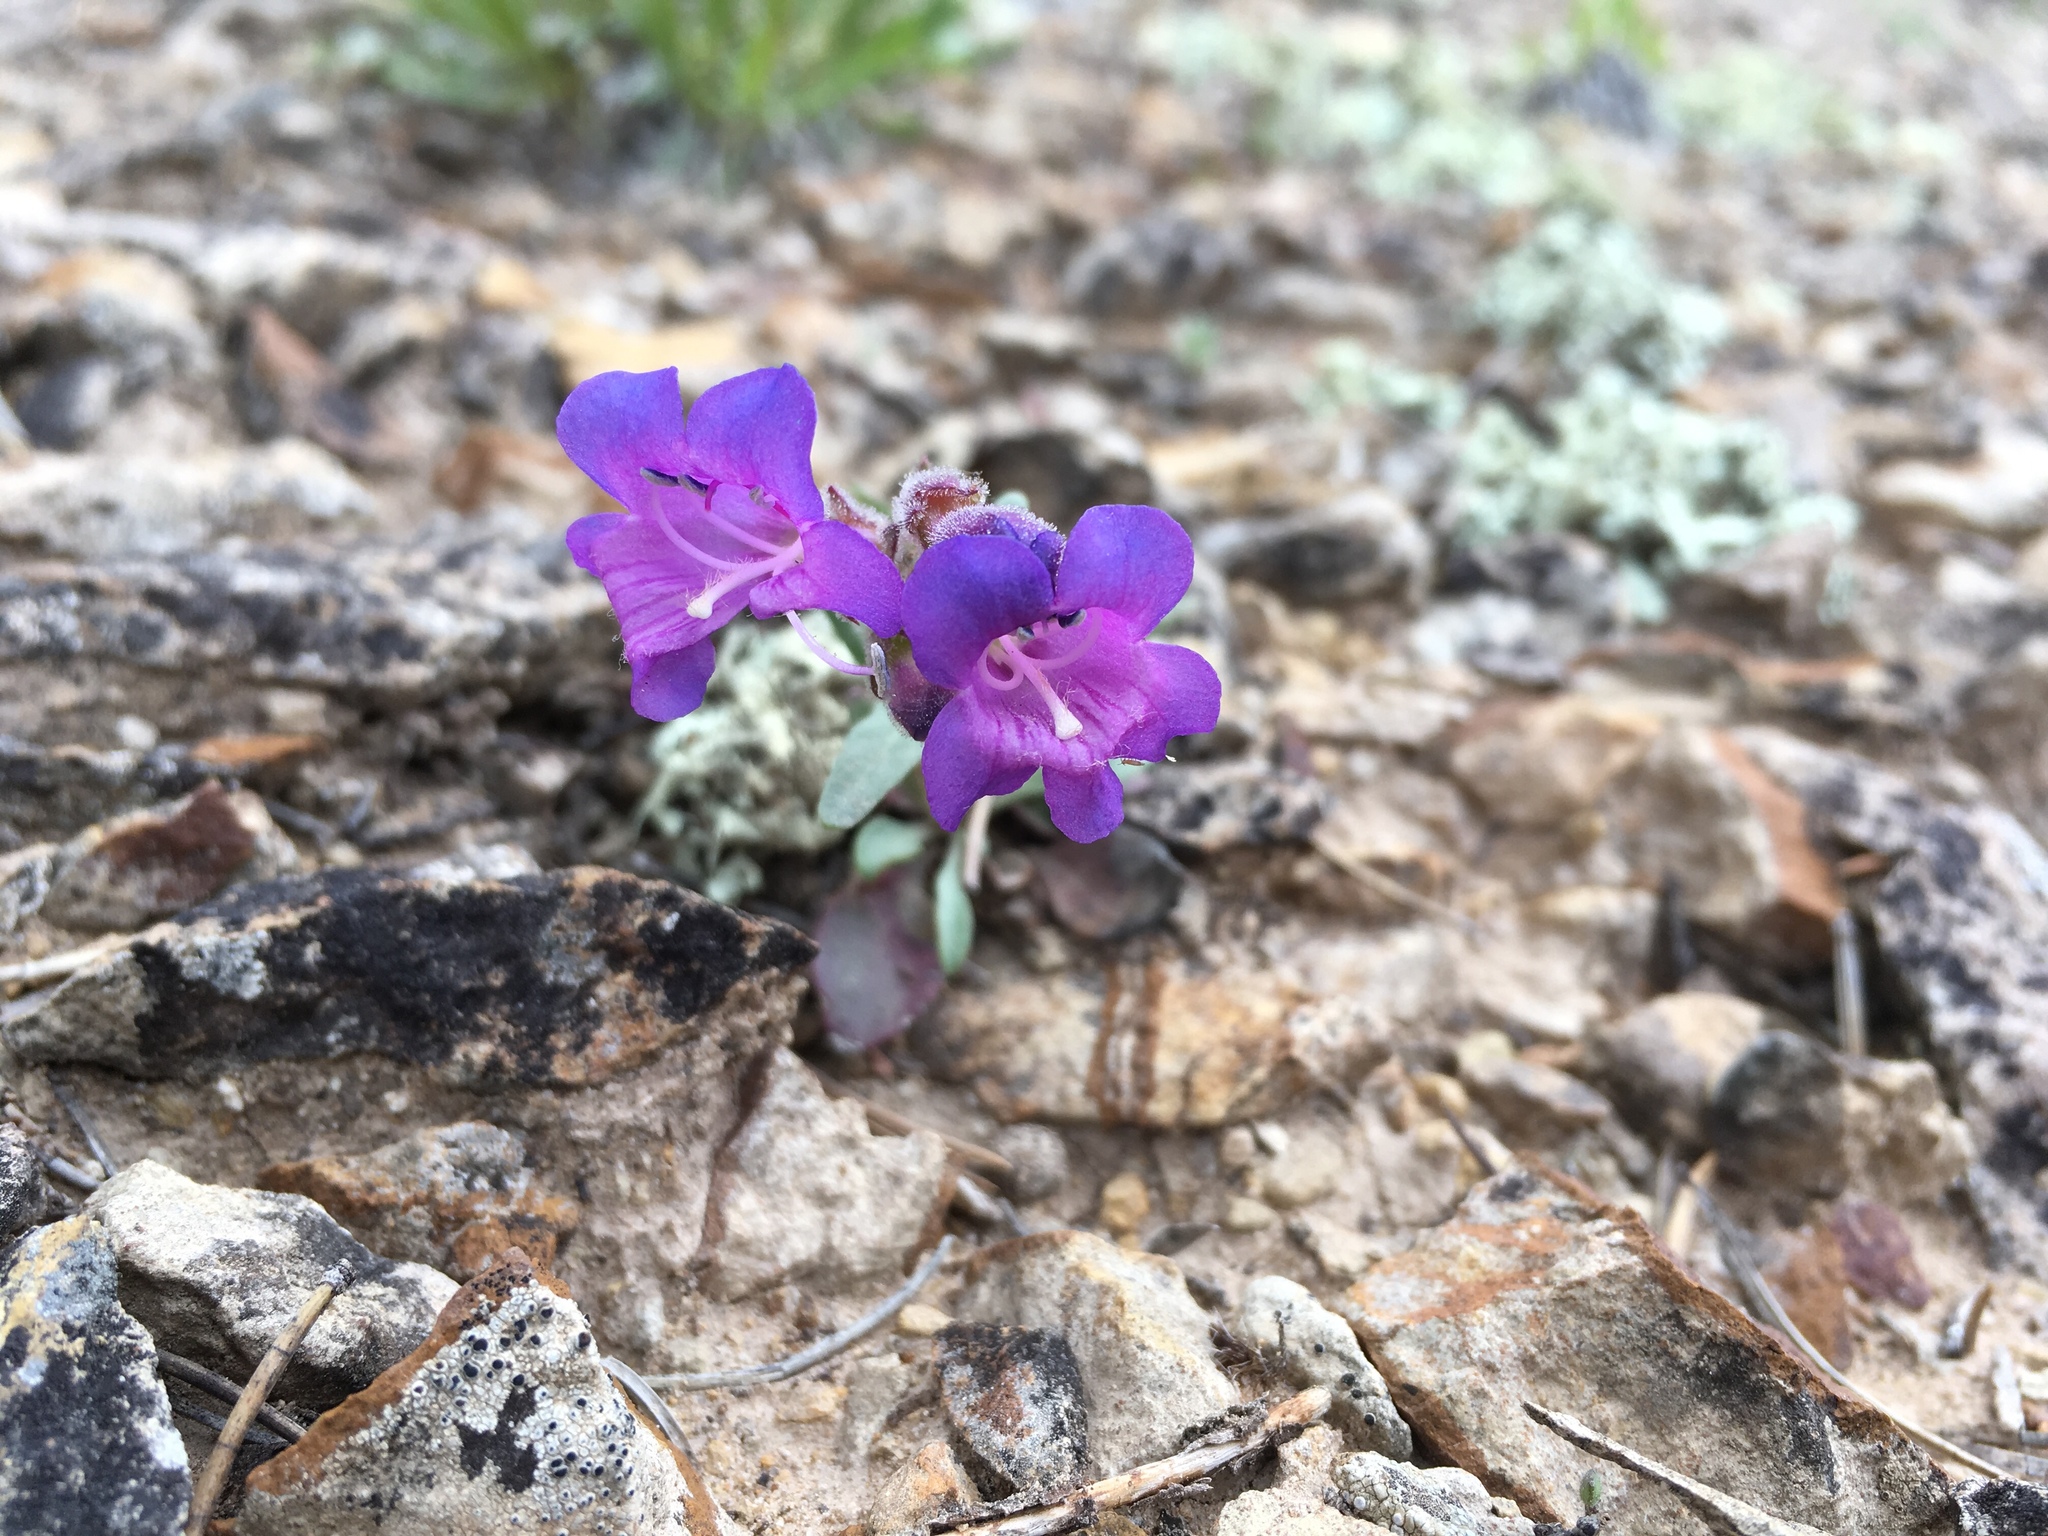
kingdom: Plantae
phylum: Tracheophyta
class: Magnoliopsida
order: Lamiales
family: Plantaginaceae
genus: Penstemon
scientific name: Penstemon moffattii
